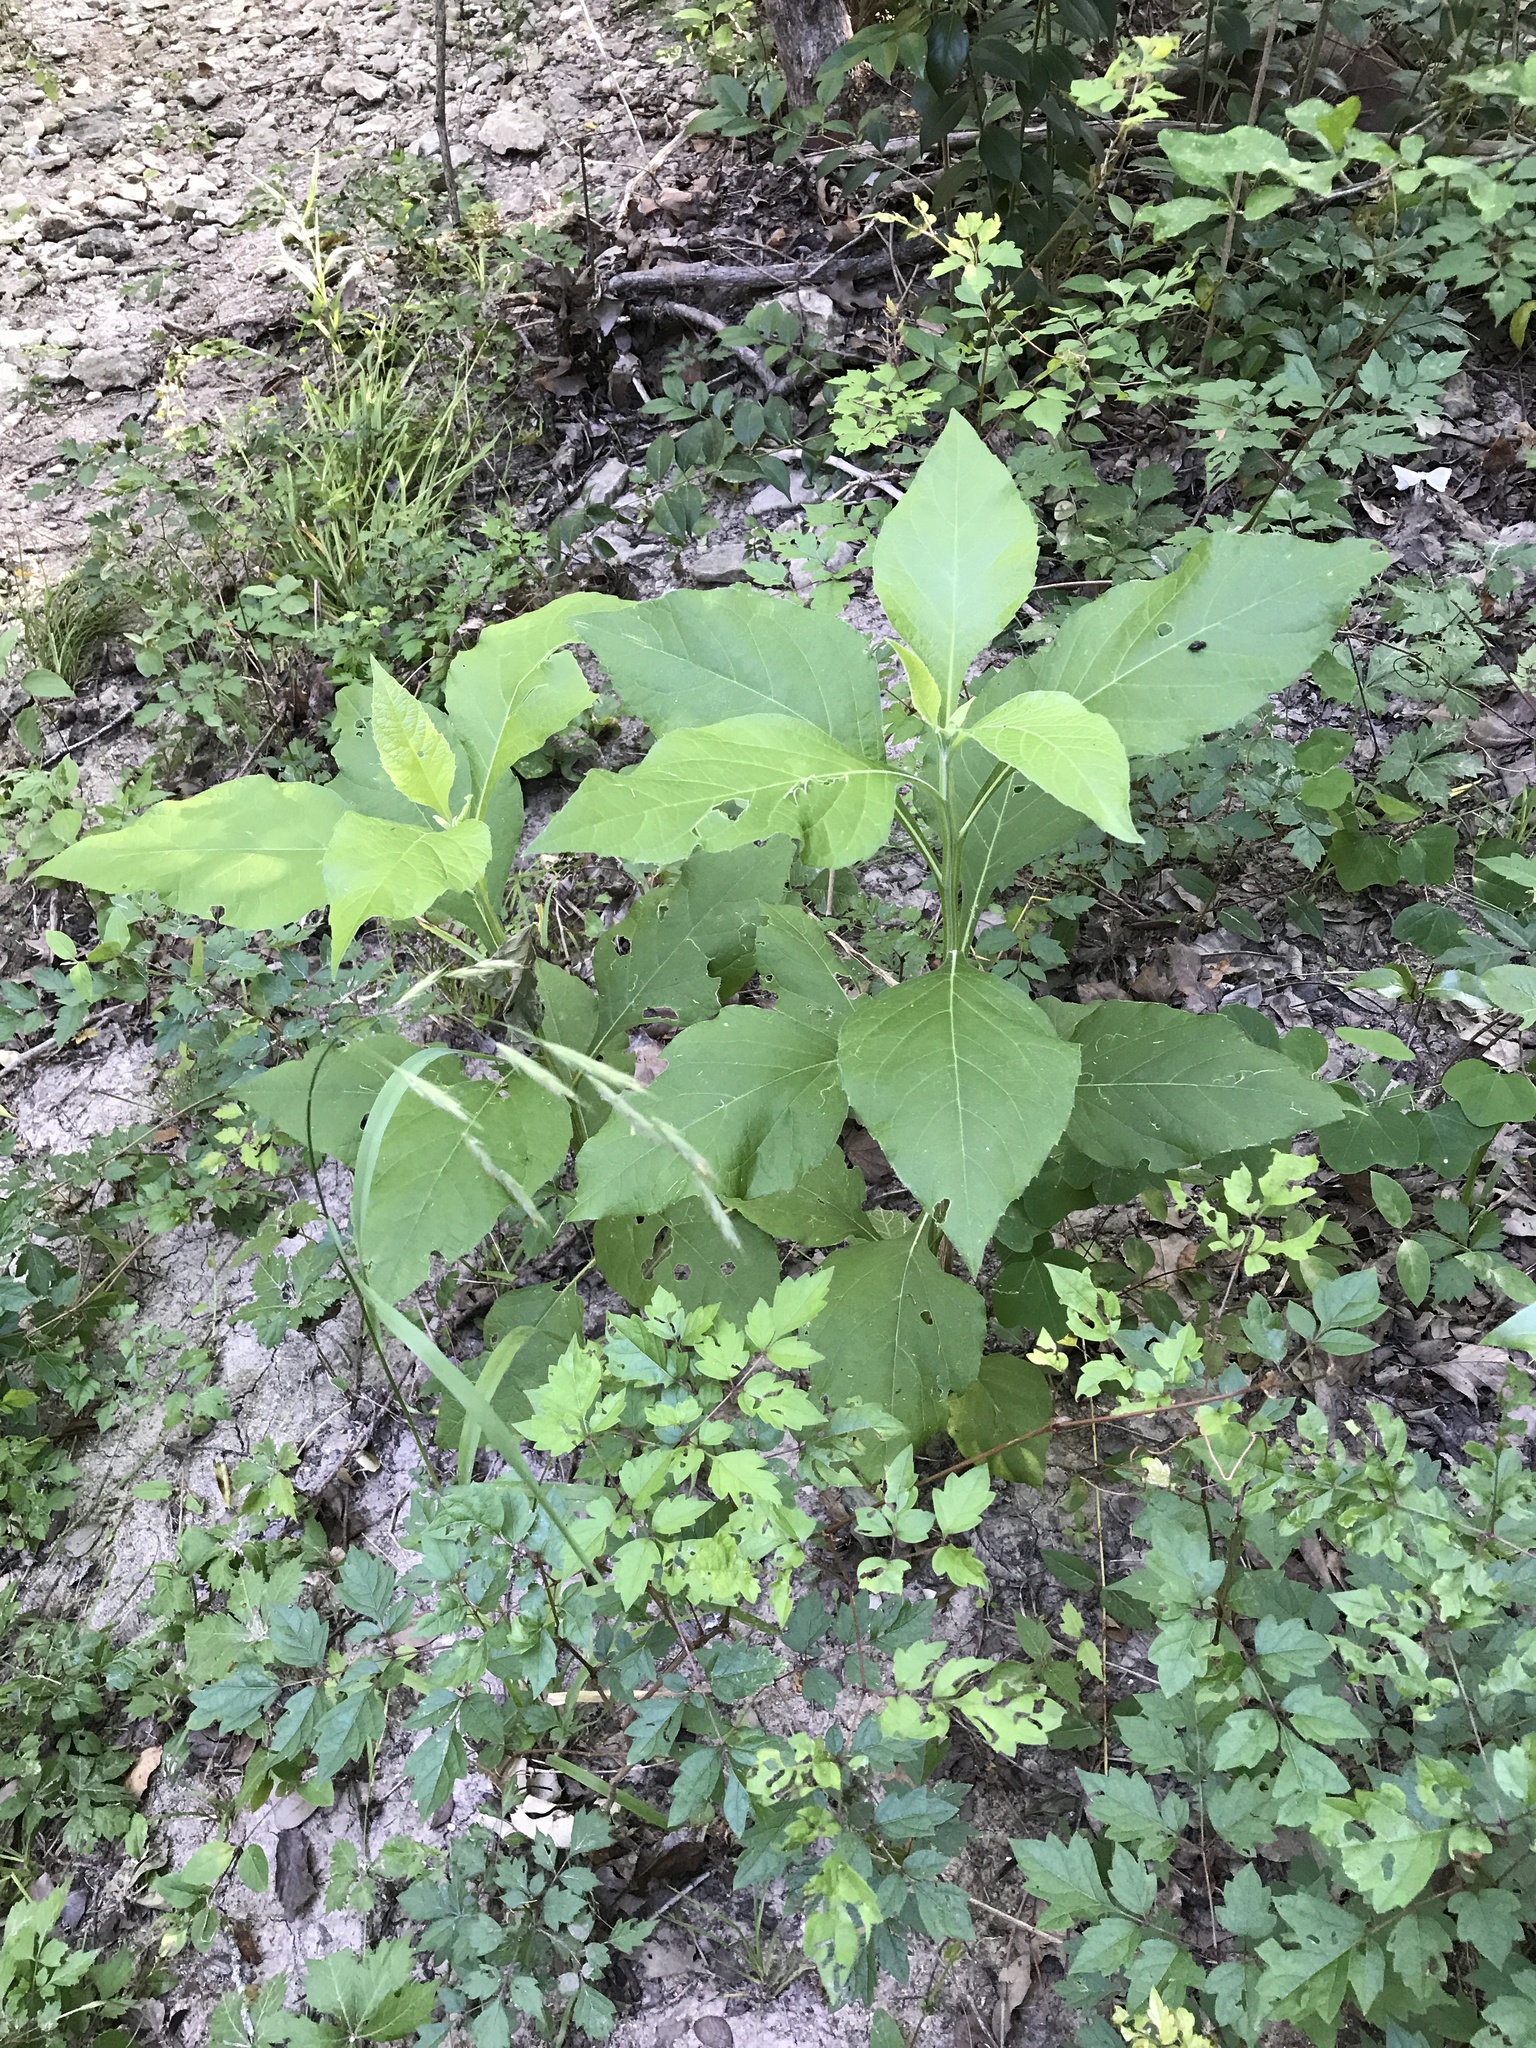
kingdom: Plantae
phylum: Tracheophyta
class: Magnoliopsida
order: Asterales
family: Asteraceae
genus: Verbesina
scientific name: Verbesina virginica
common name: Frostweed
